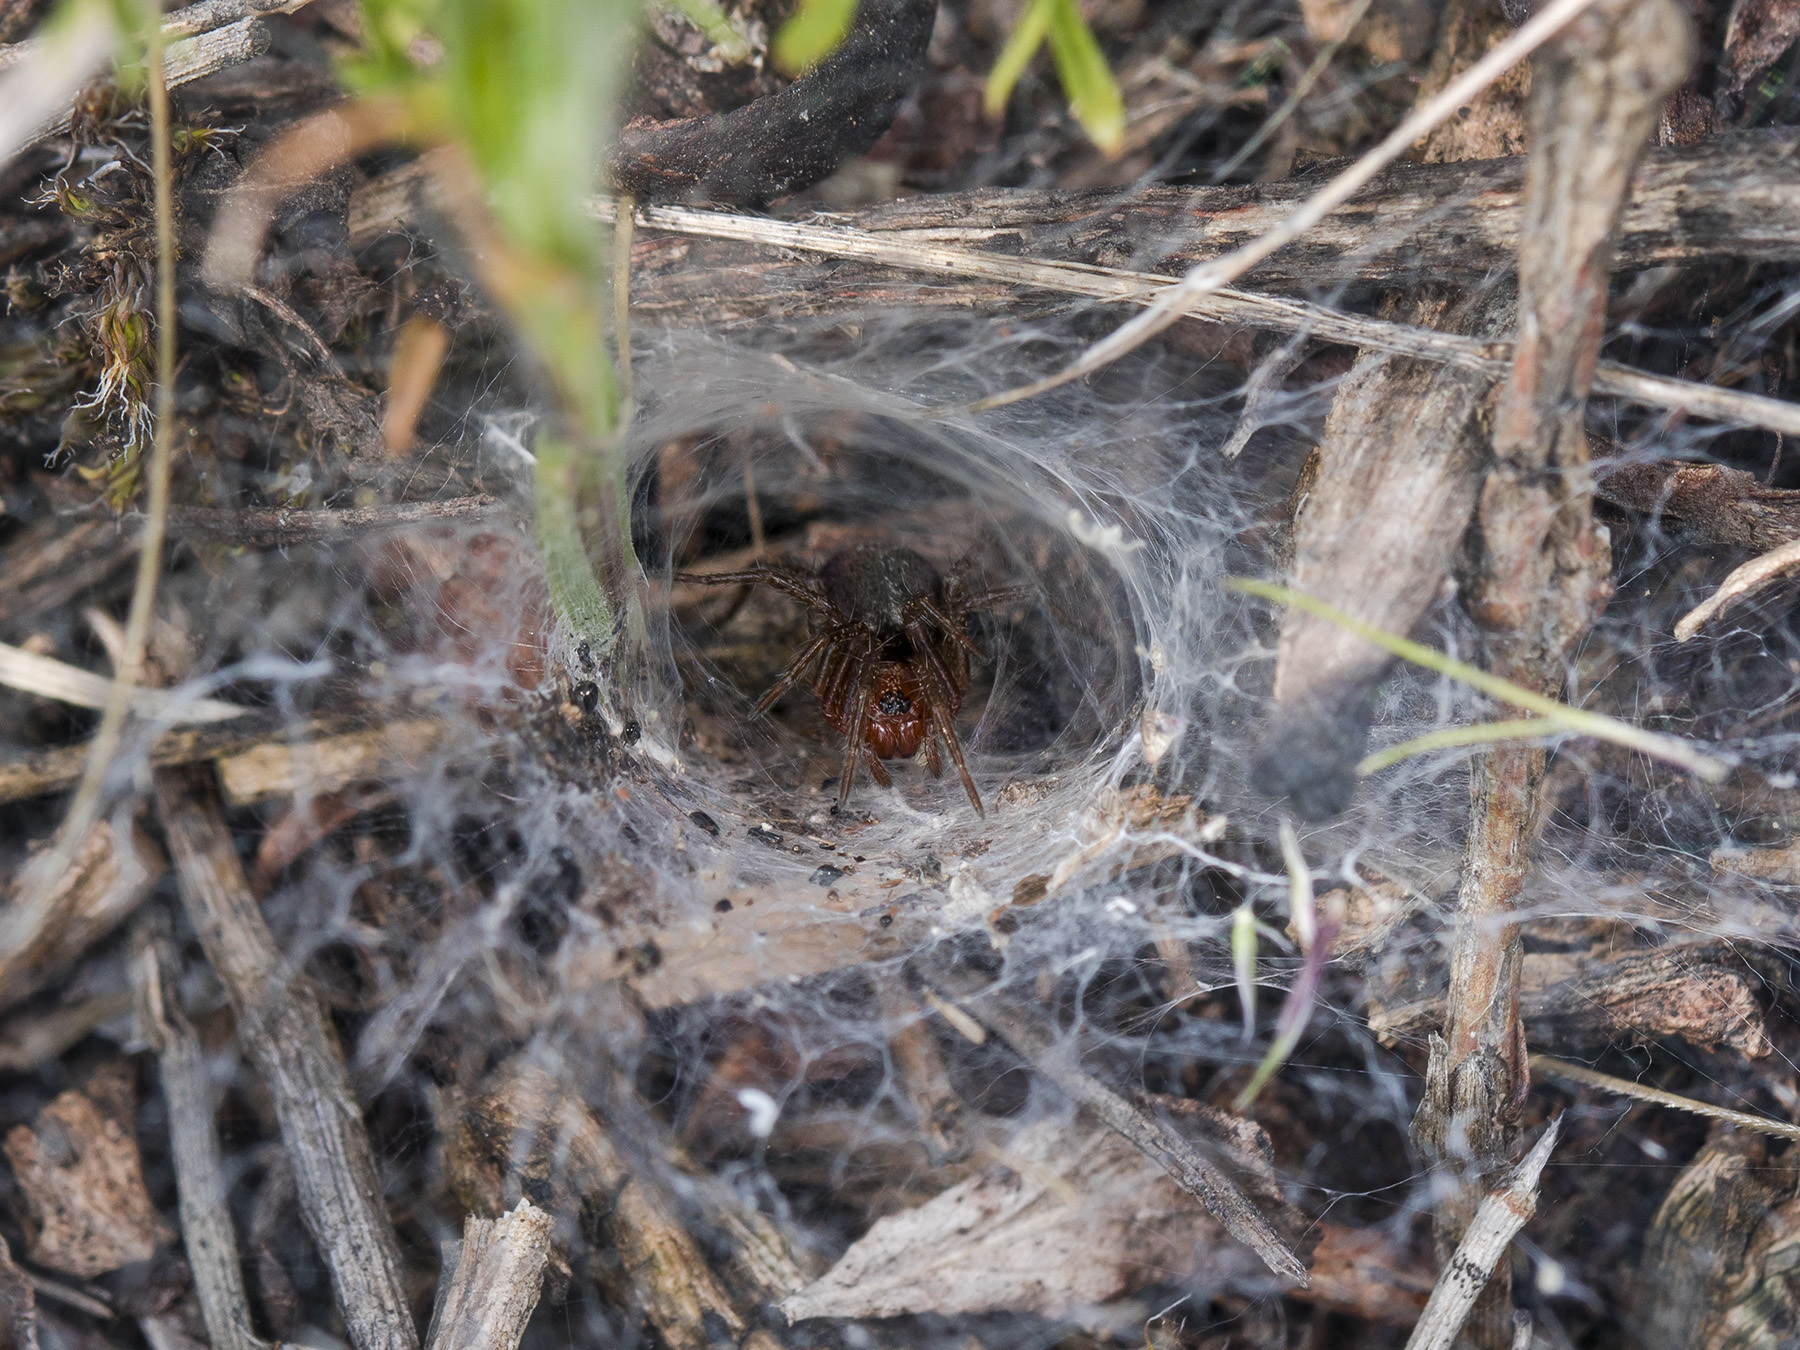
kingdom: Animalia
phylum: Arthropoda
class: Arachnida
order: Araneae
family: Agelenidae
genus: Agelena
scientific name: Agelena labyrinthica
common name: Labyrinth spider
